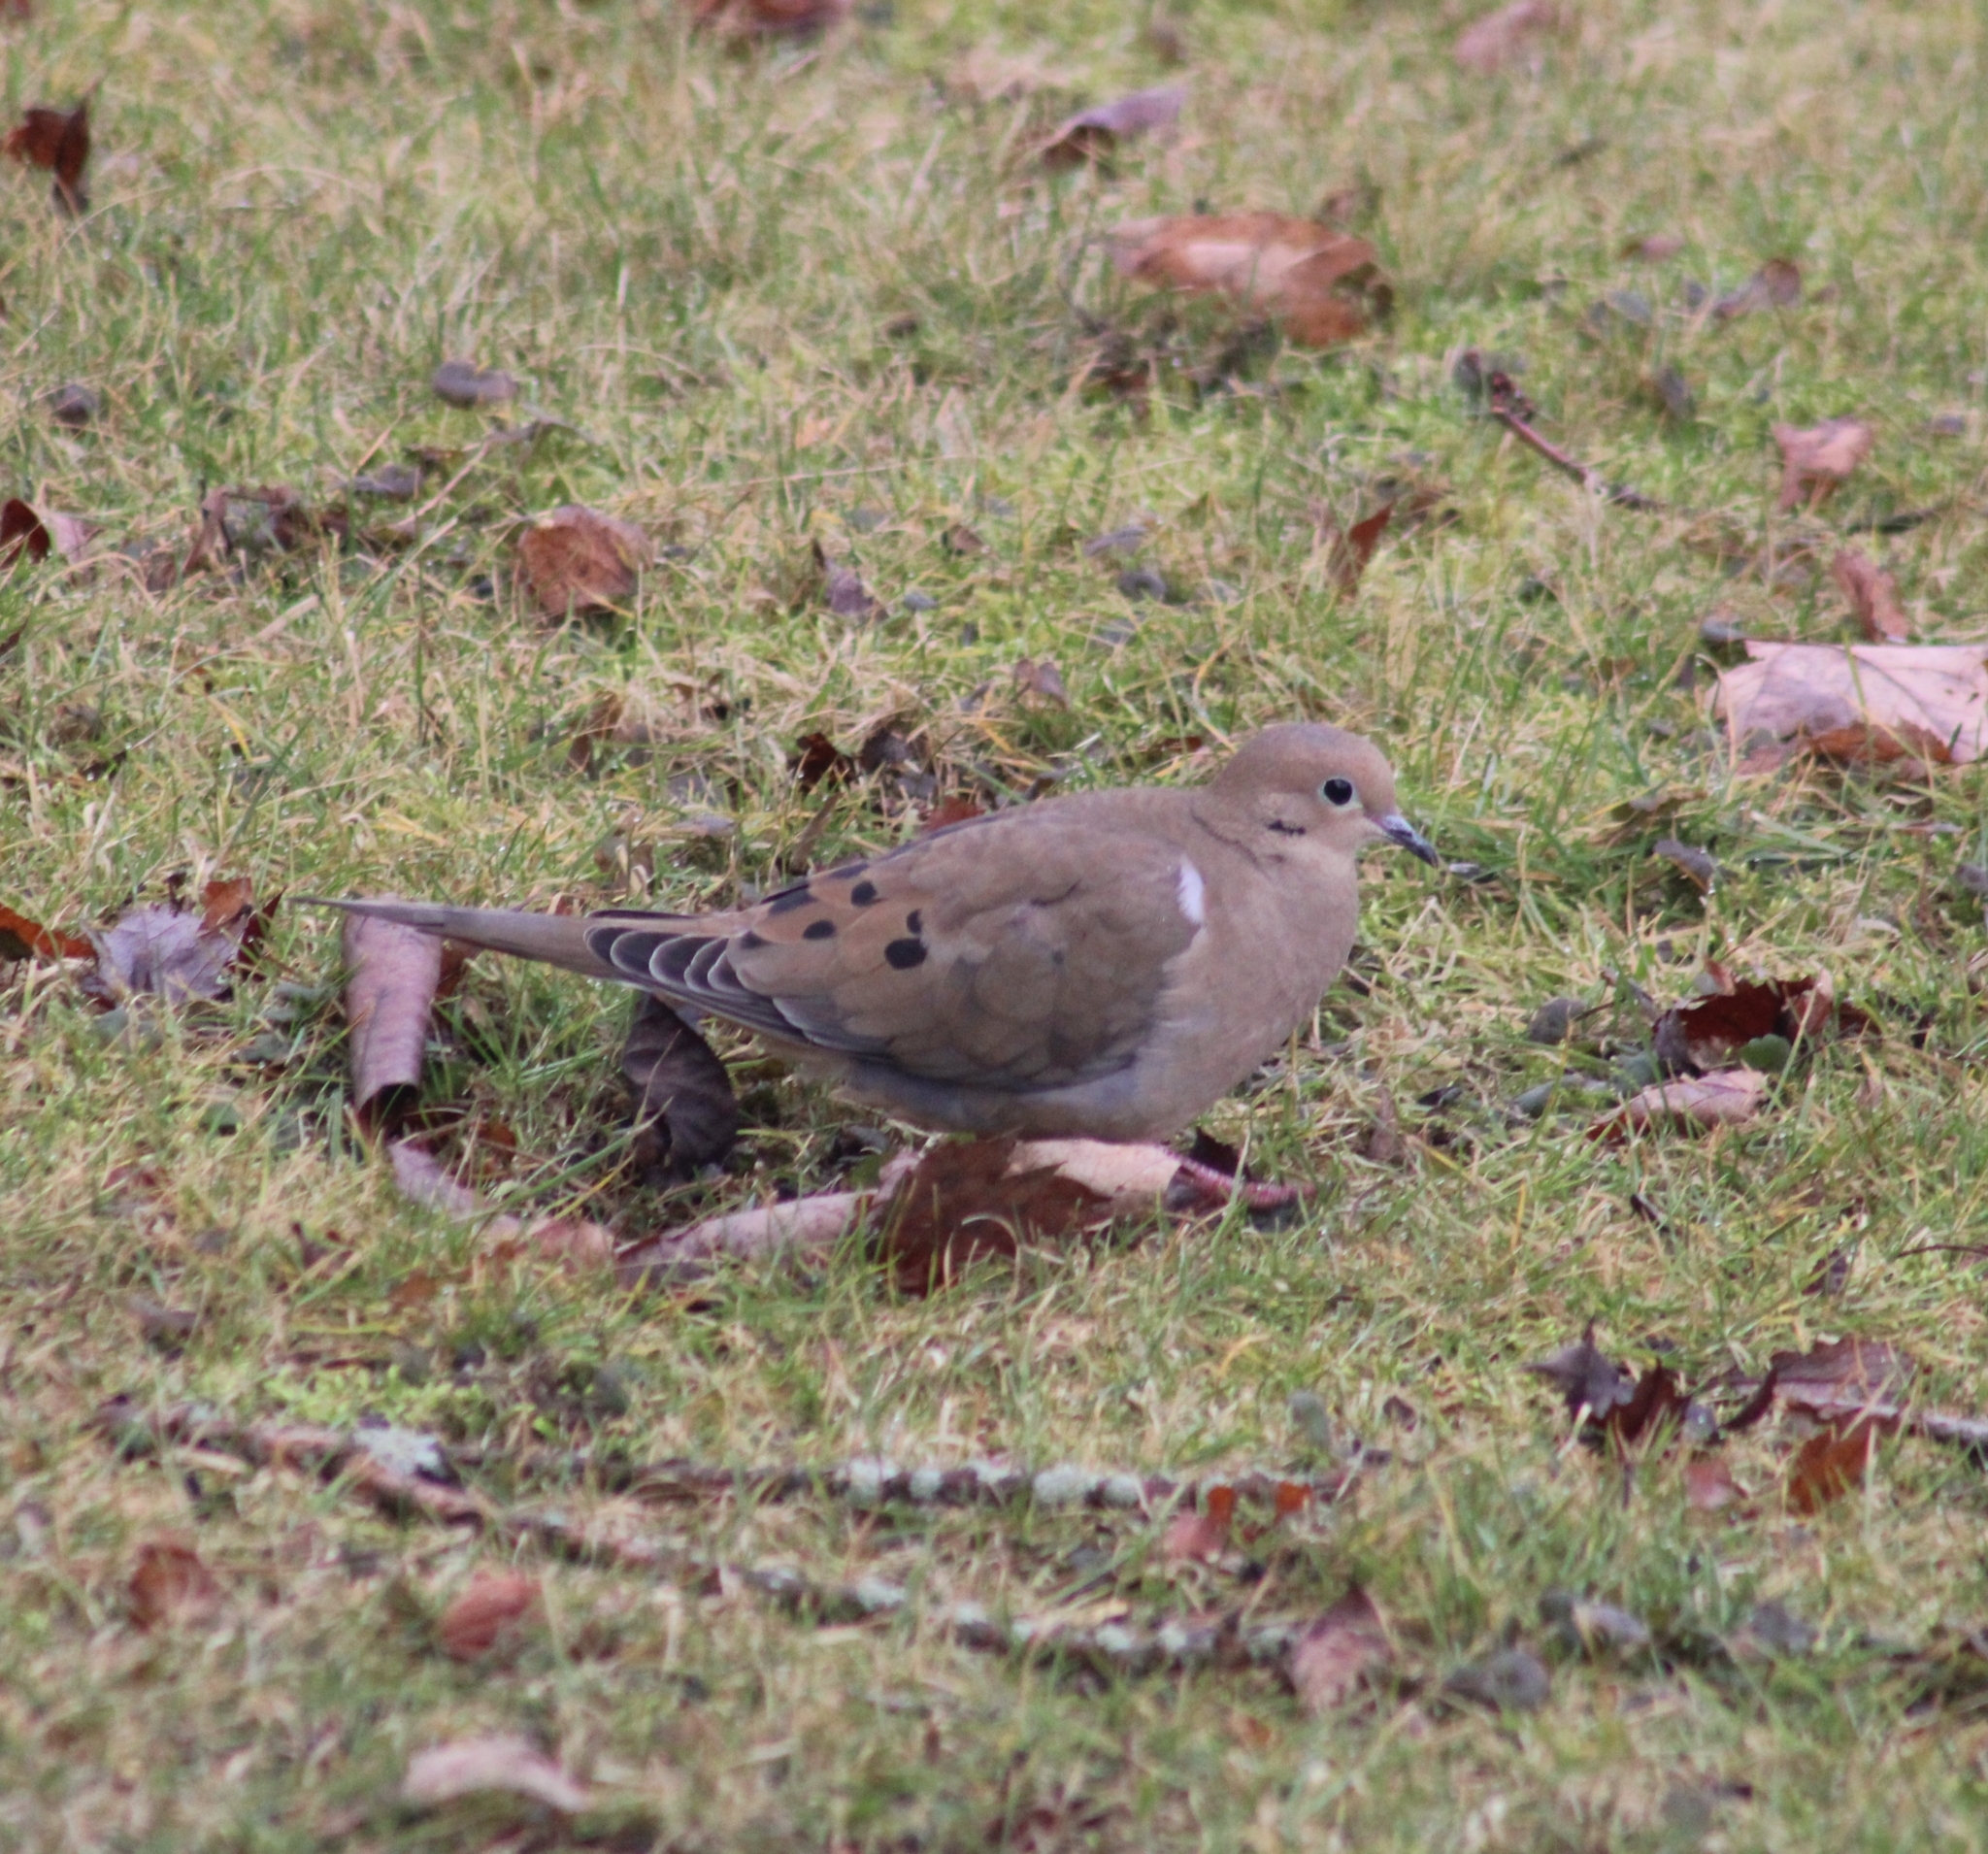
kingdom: Animalia
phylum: Chordata
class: Aves
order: Columbiformes
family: Columbidae
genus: Zenaida
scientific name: Zenaida macroura
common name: Mourning dove
